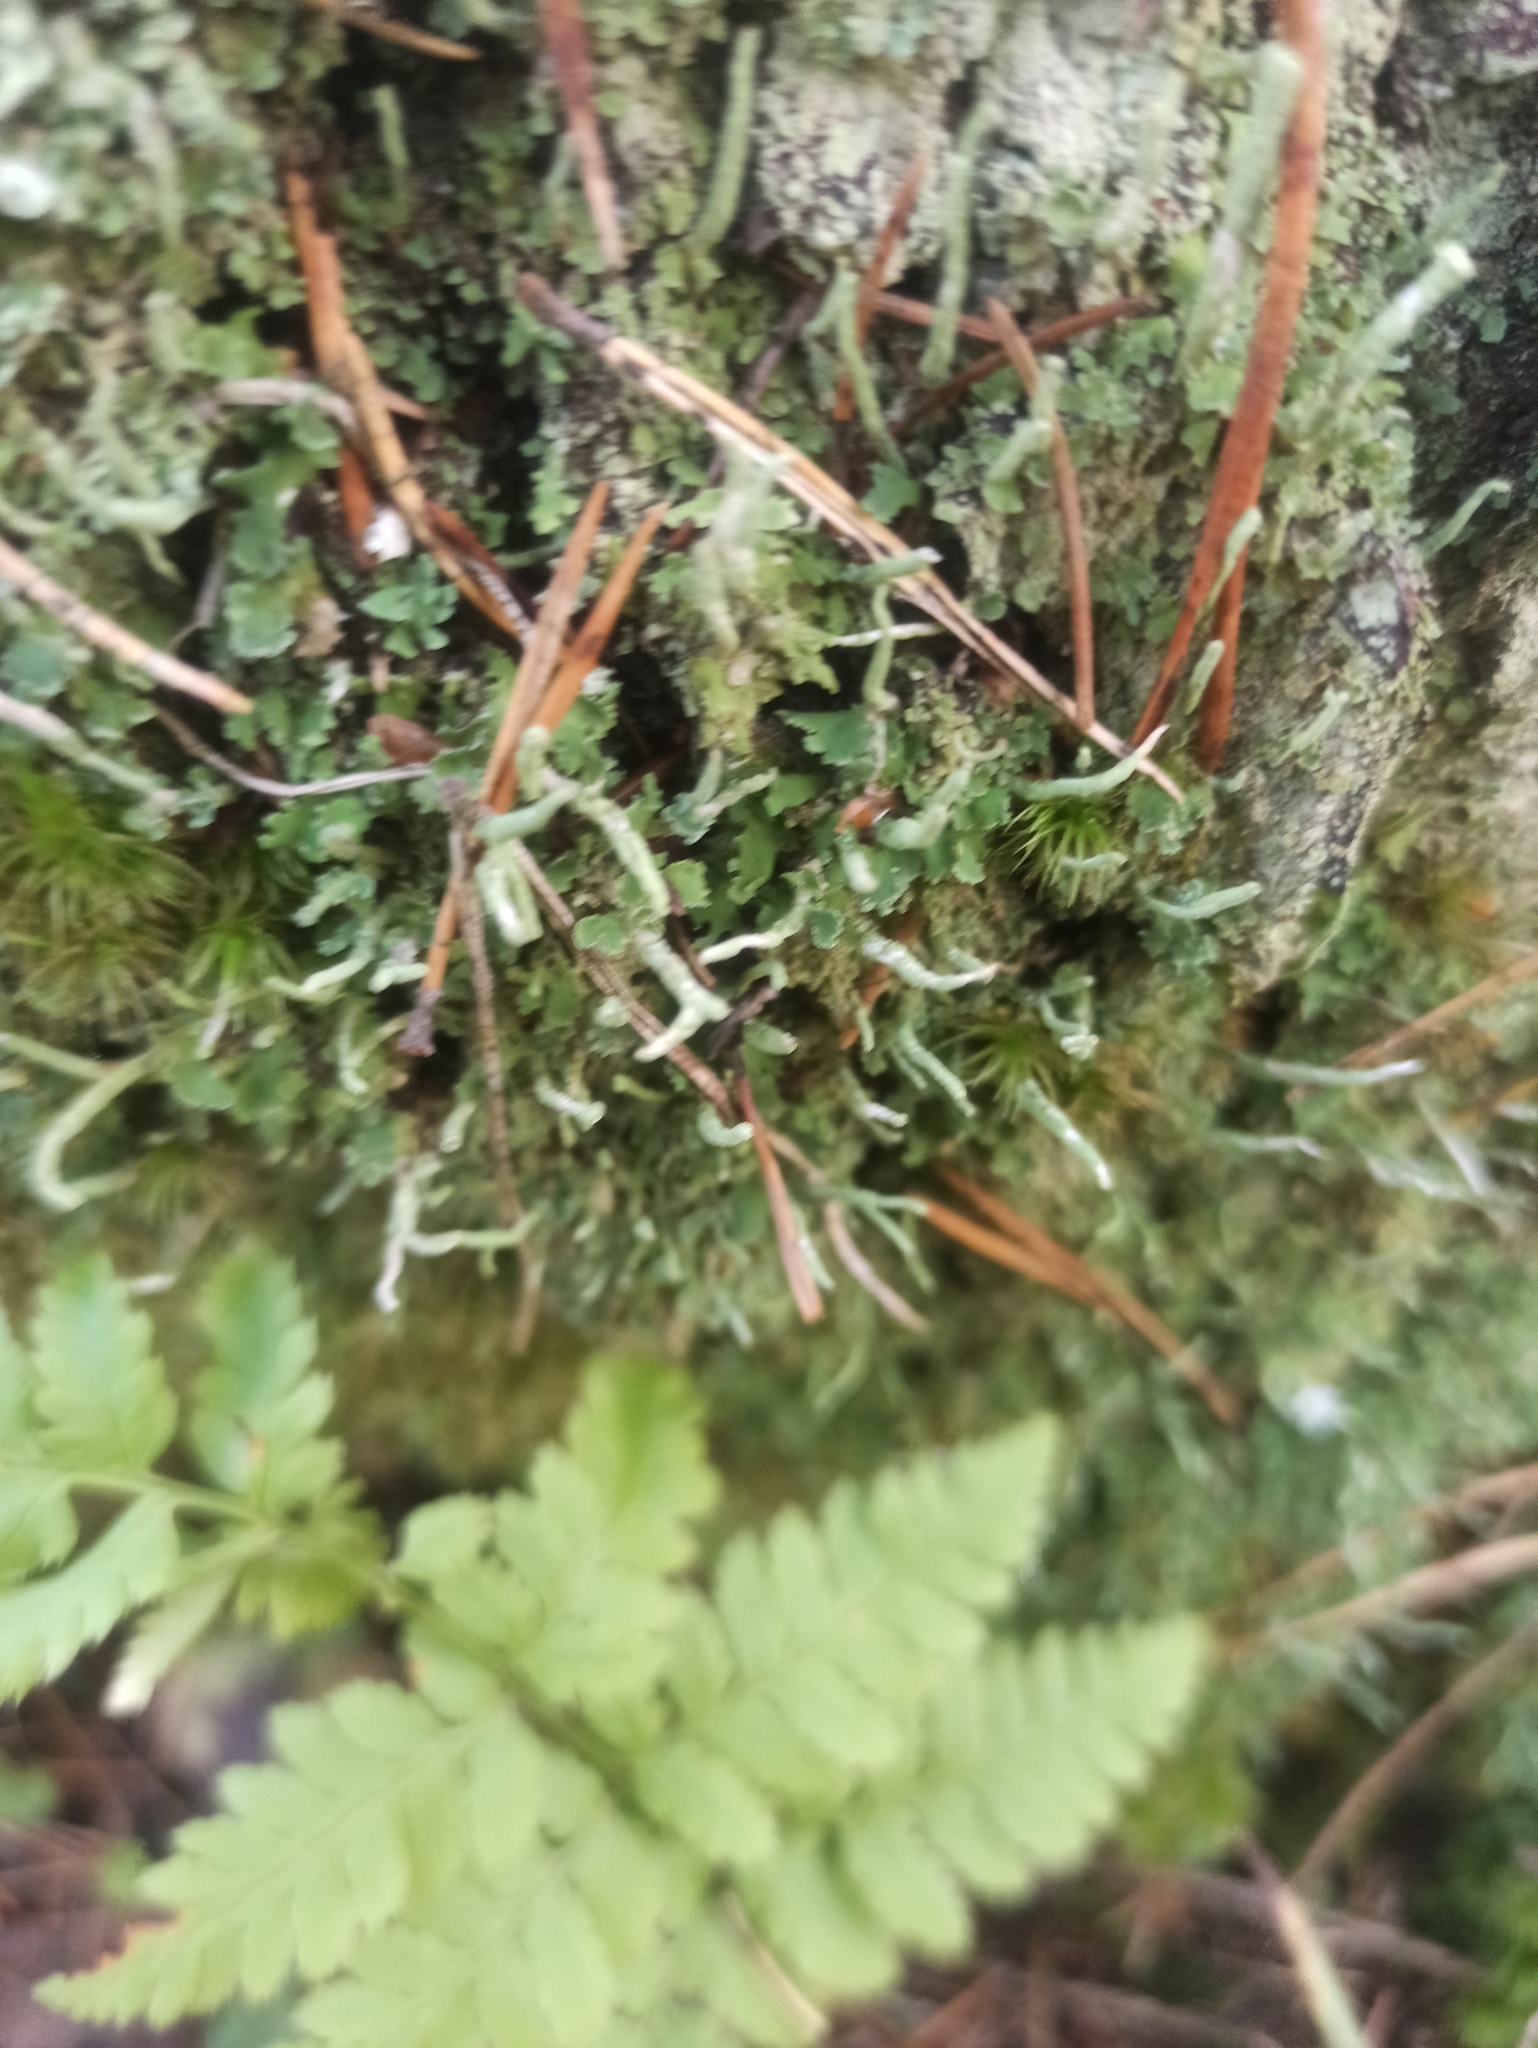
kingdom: Fungi
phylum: Ascomycota
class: Lecanoromycetes
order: Lecanorales
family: Cladoniaceae
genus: Cladonia
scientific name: Cladonia coniocraea
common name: Common powderhorn
